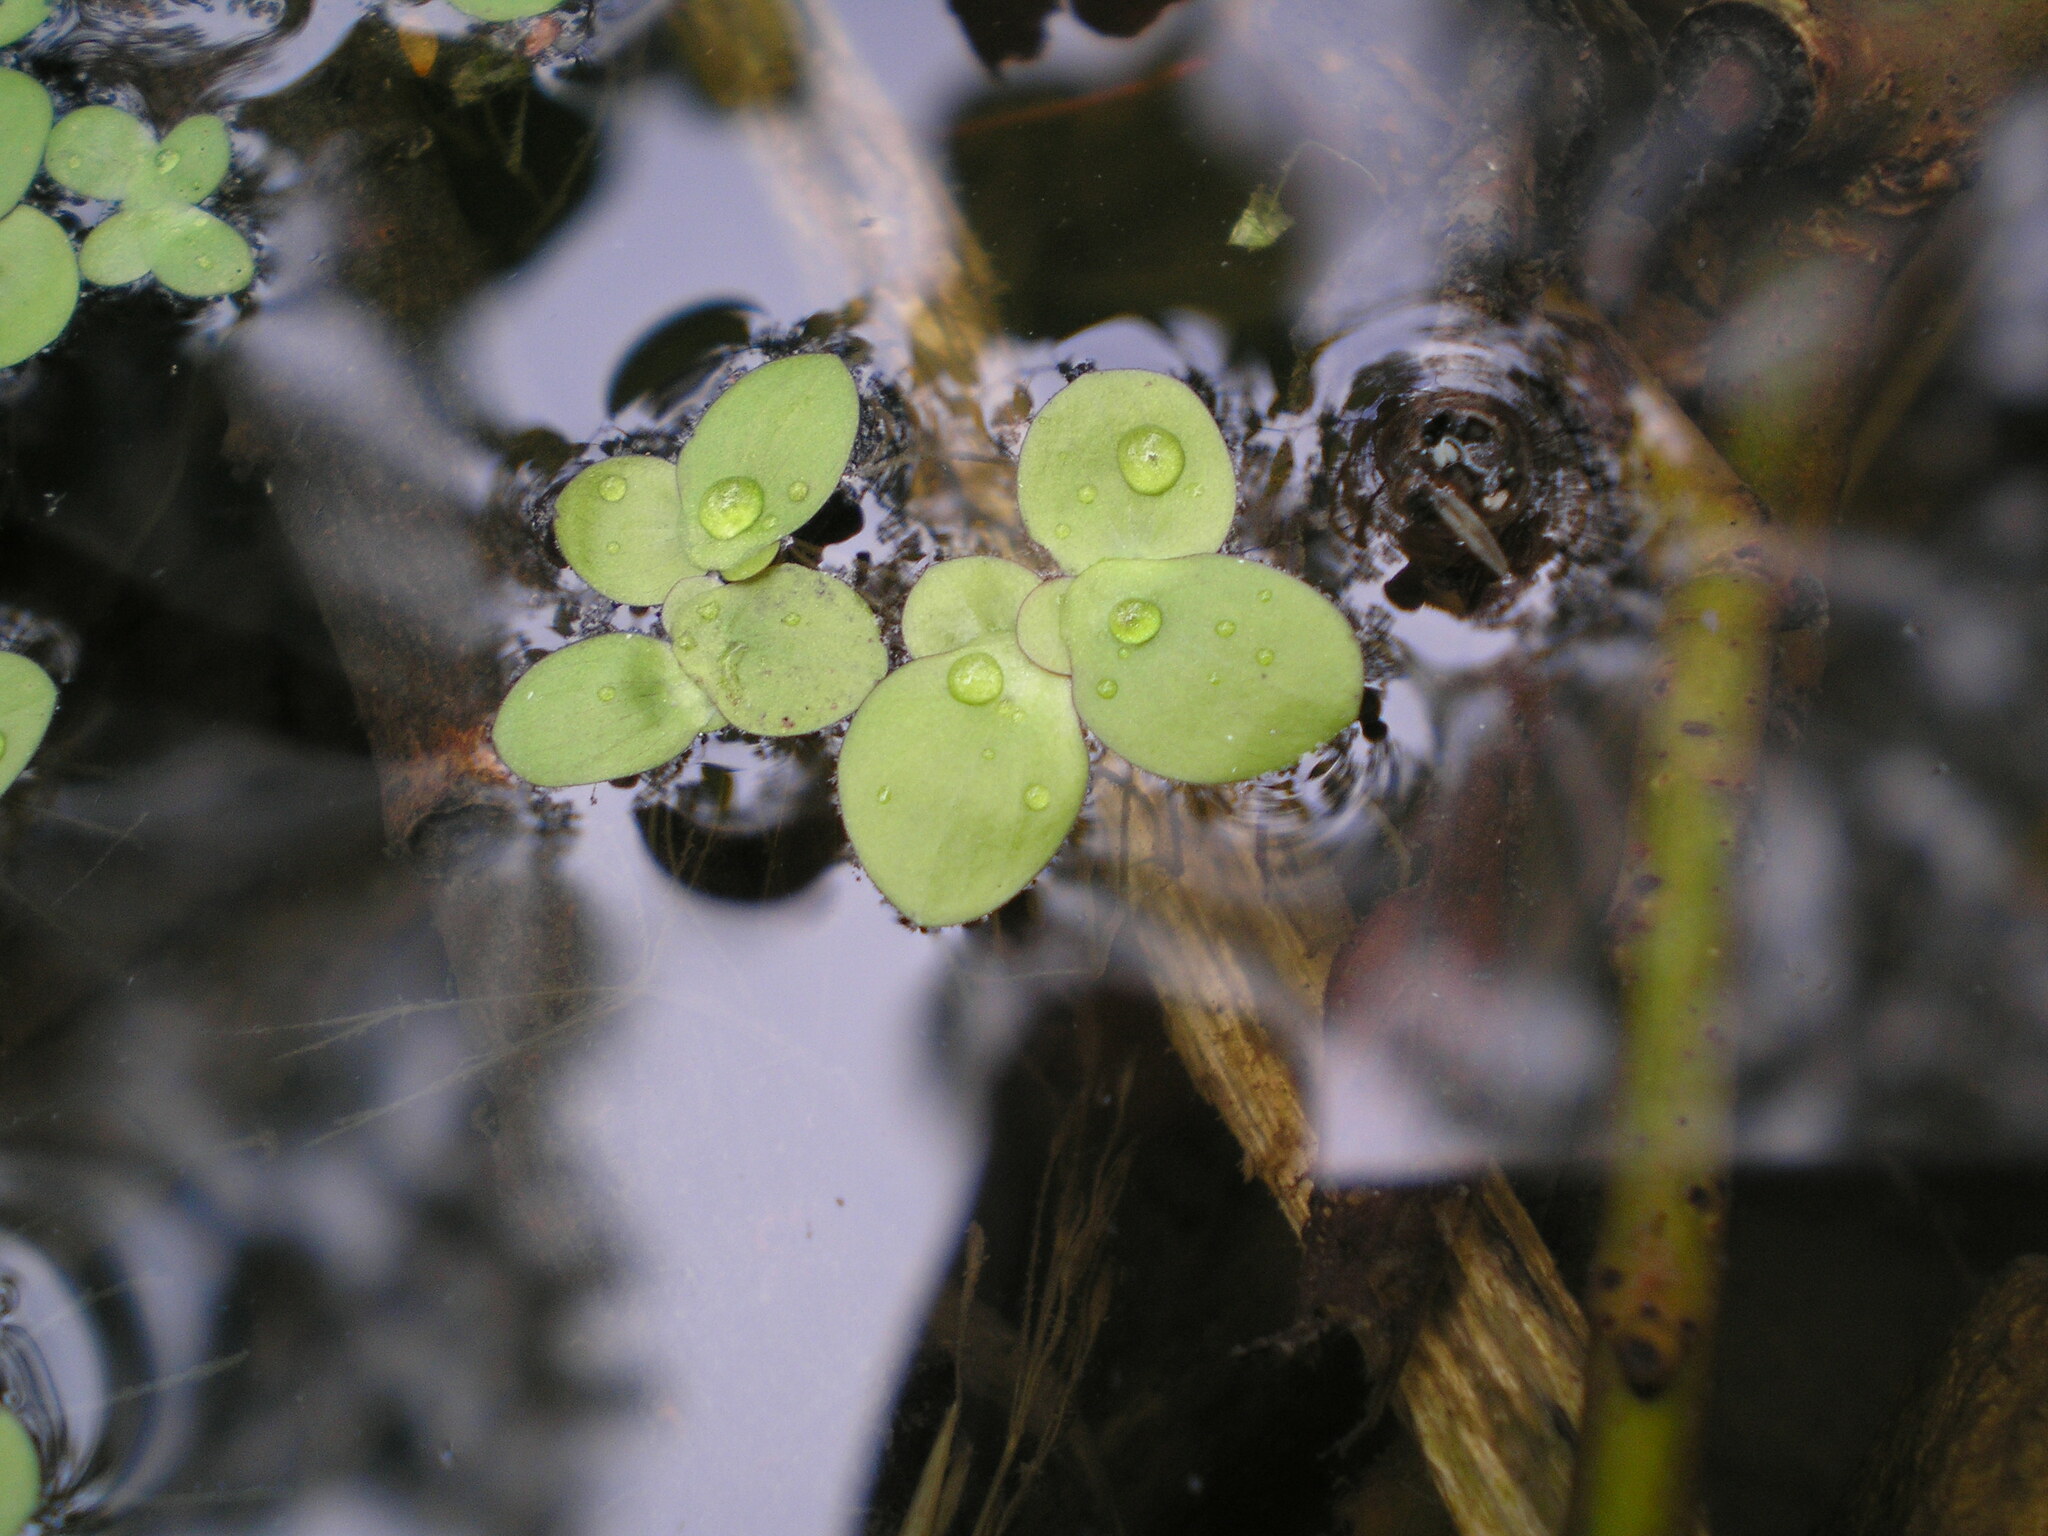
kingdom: Plantae
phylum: Tracheophyta
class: Liliopsida
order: Alismatales
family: Araceae
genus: Spirodela
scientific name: Spirodela polyrhiza
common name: Great duckweed
